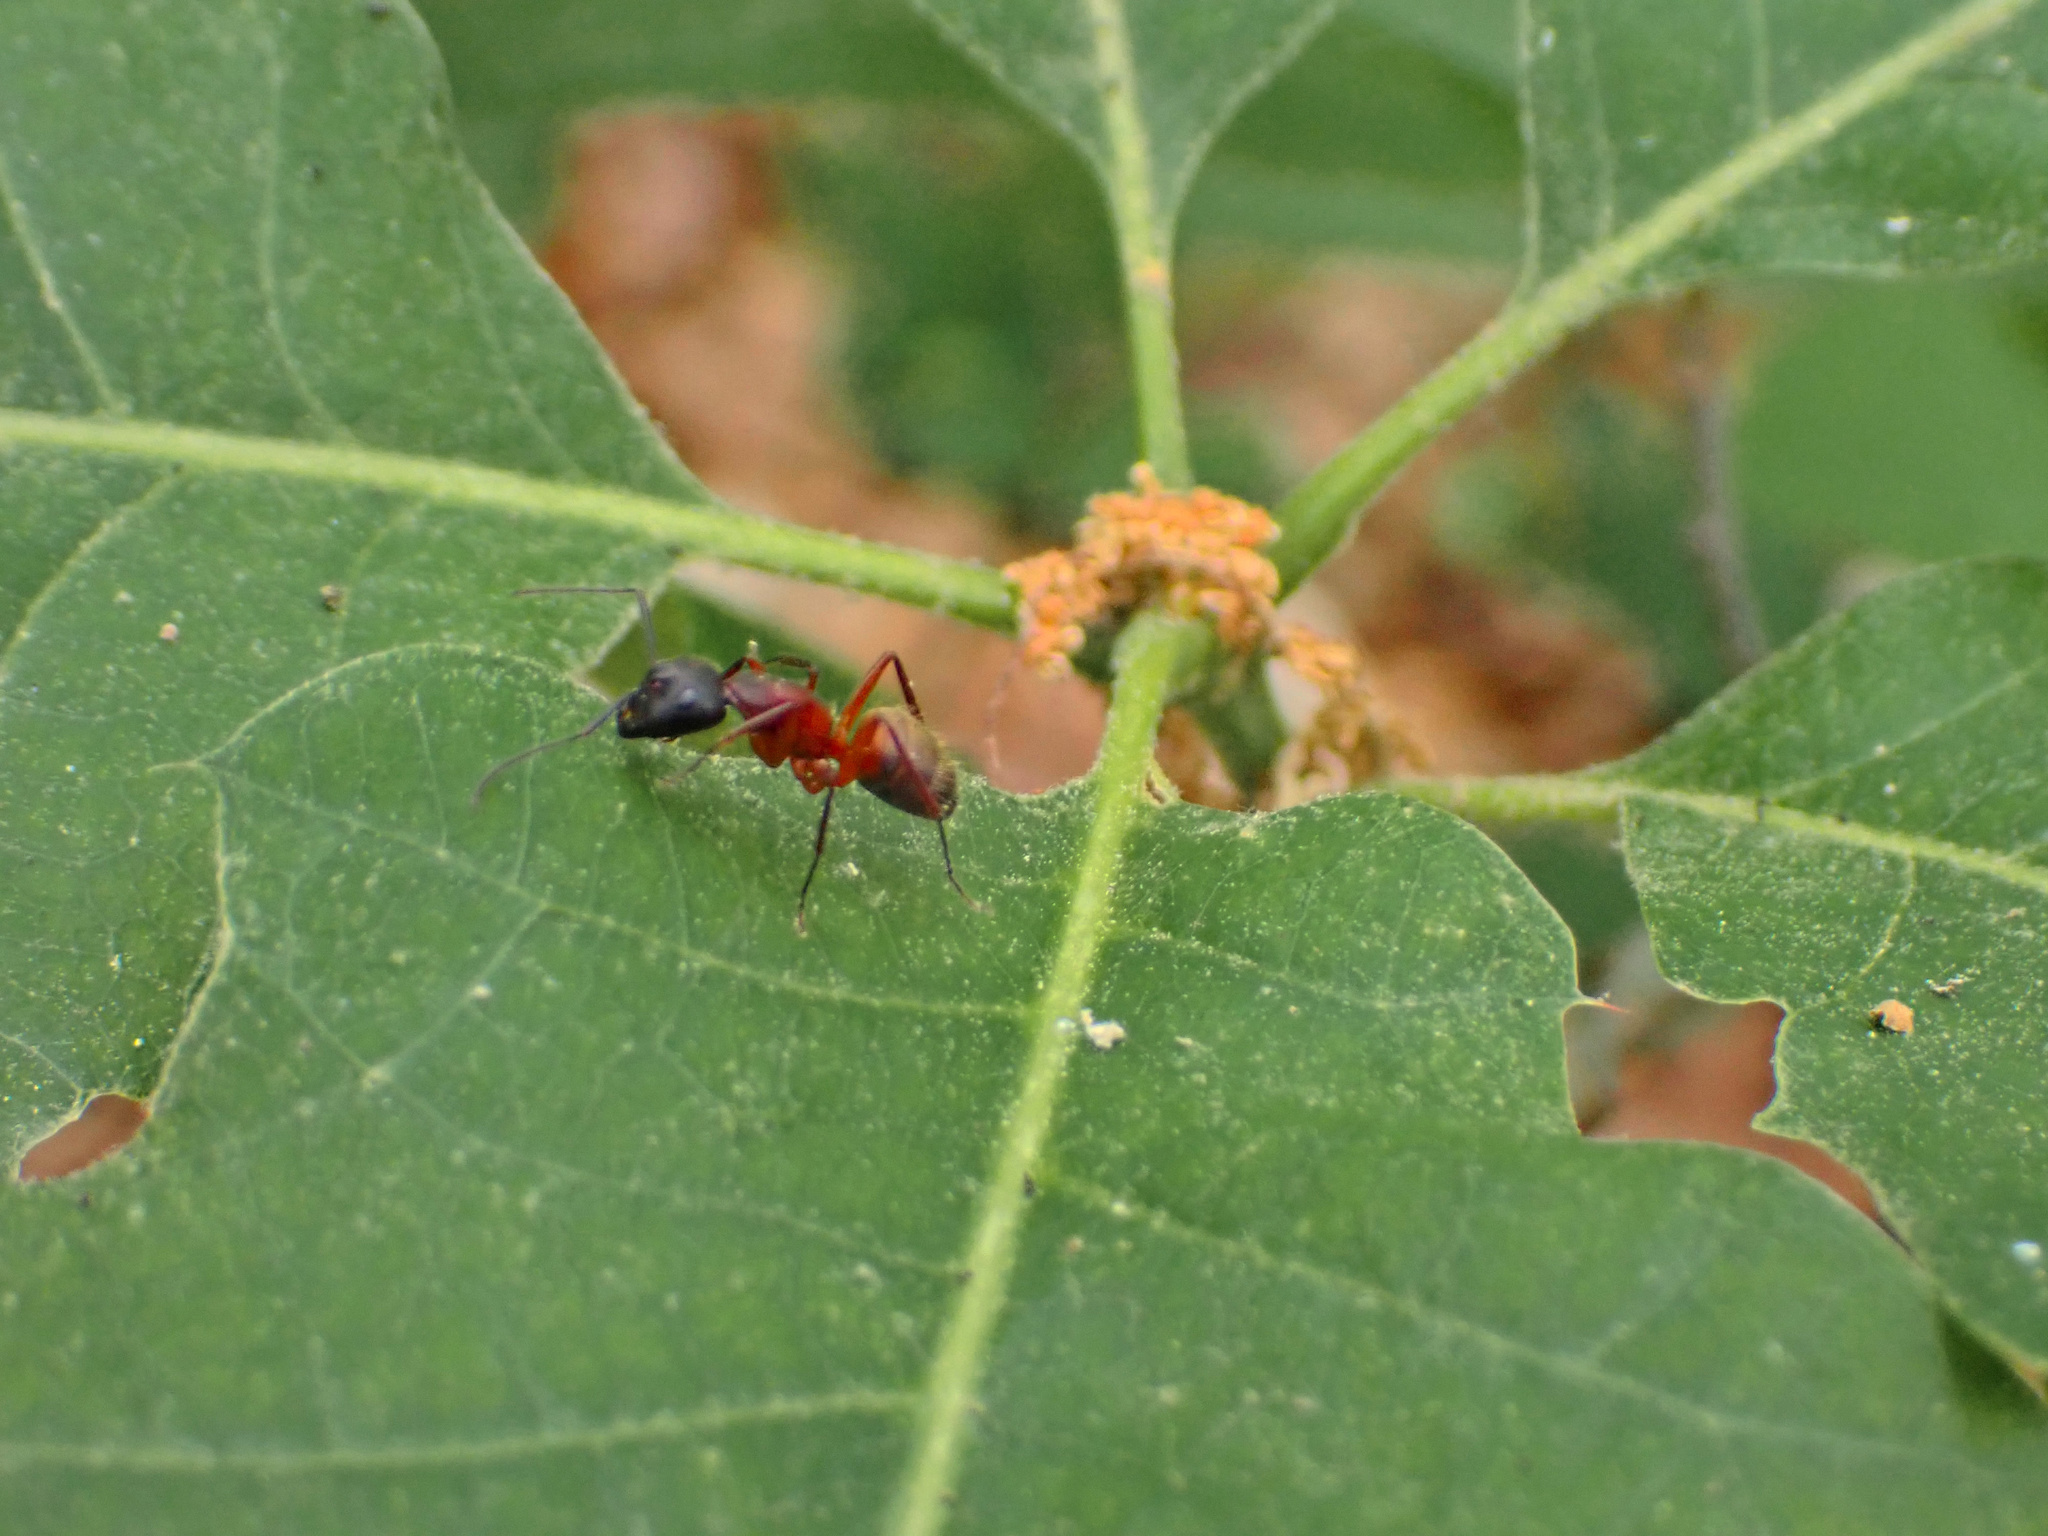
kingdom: Animalia
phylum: Arthropoda
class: Insecta
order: Hymenoptera
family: Formicidae
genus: Camponotus
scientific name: Camponotus chromaiodes
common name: Red carpenter ant
